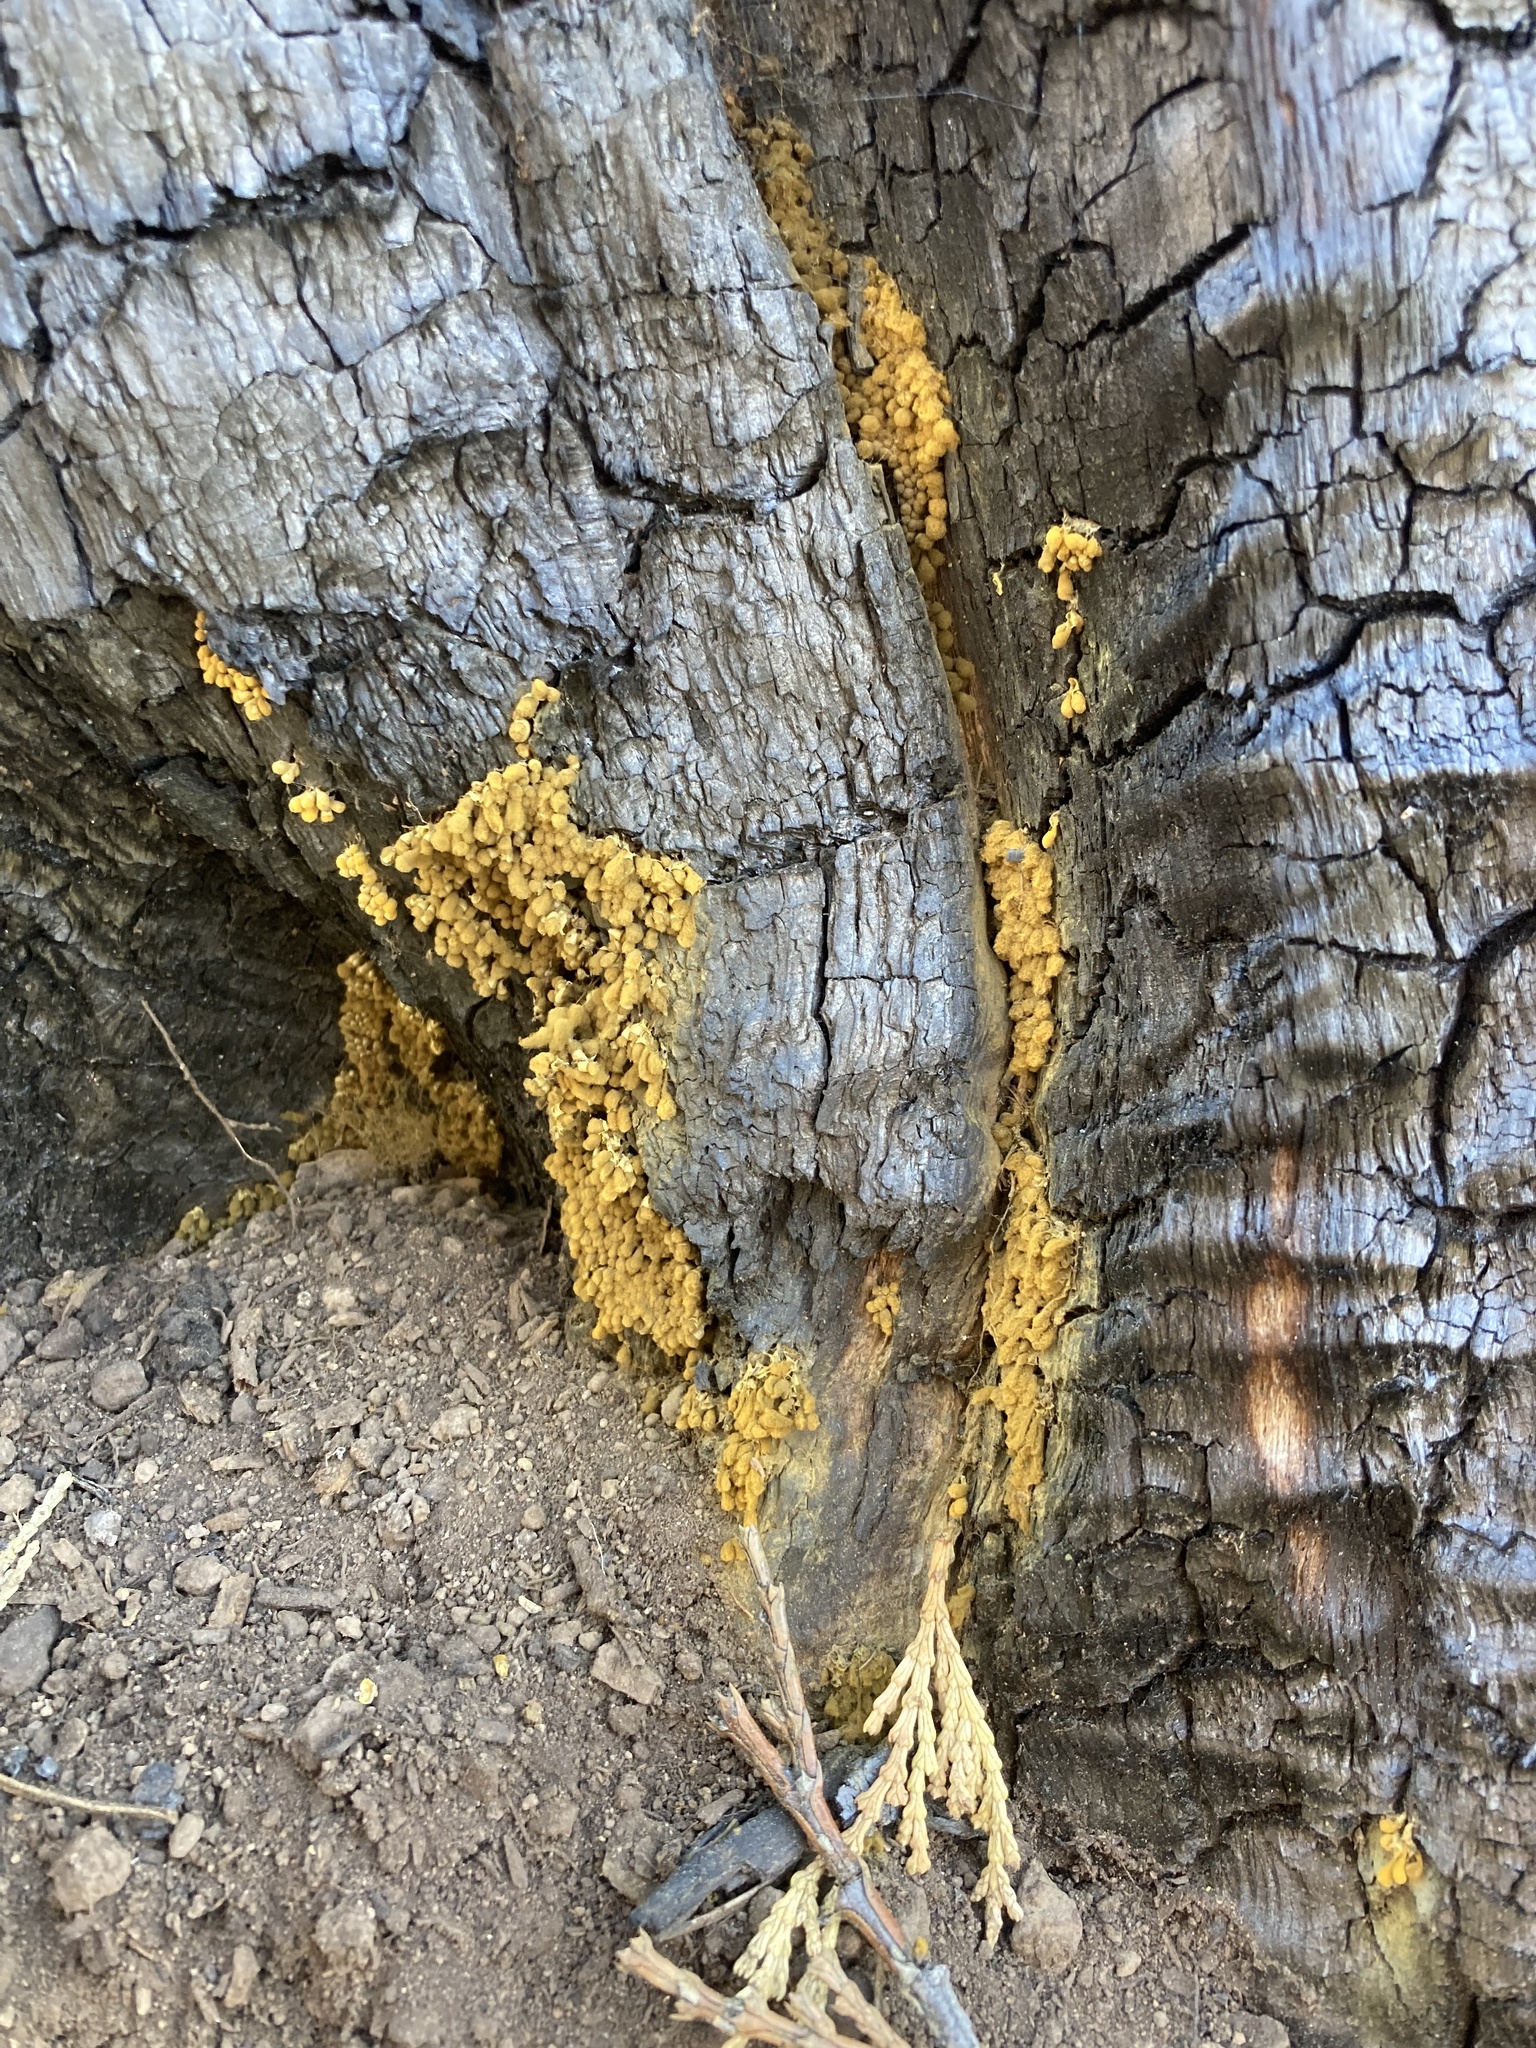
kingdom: Protozoa
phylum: Mycetozoa
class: Myxomycetes
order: Trichiales
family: Arcyriaceae
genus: Arcyria
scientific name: Arcyria versicolor
